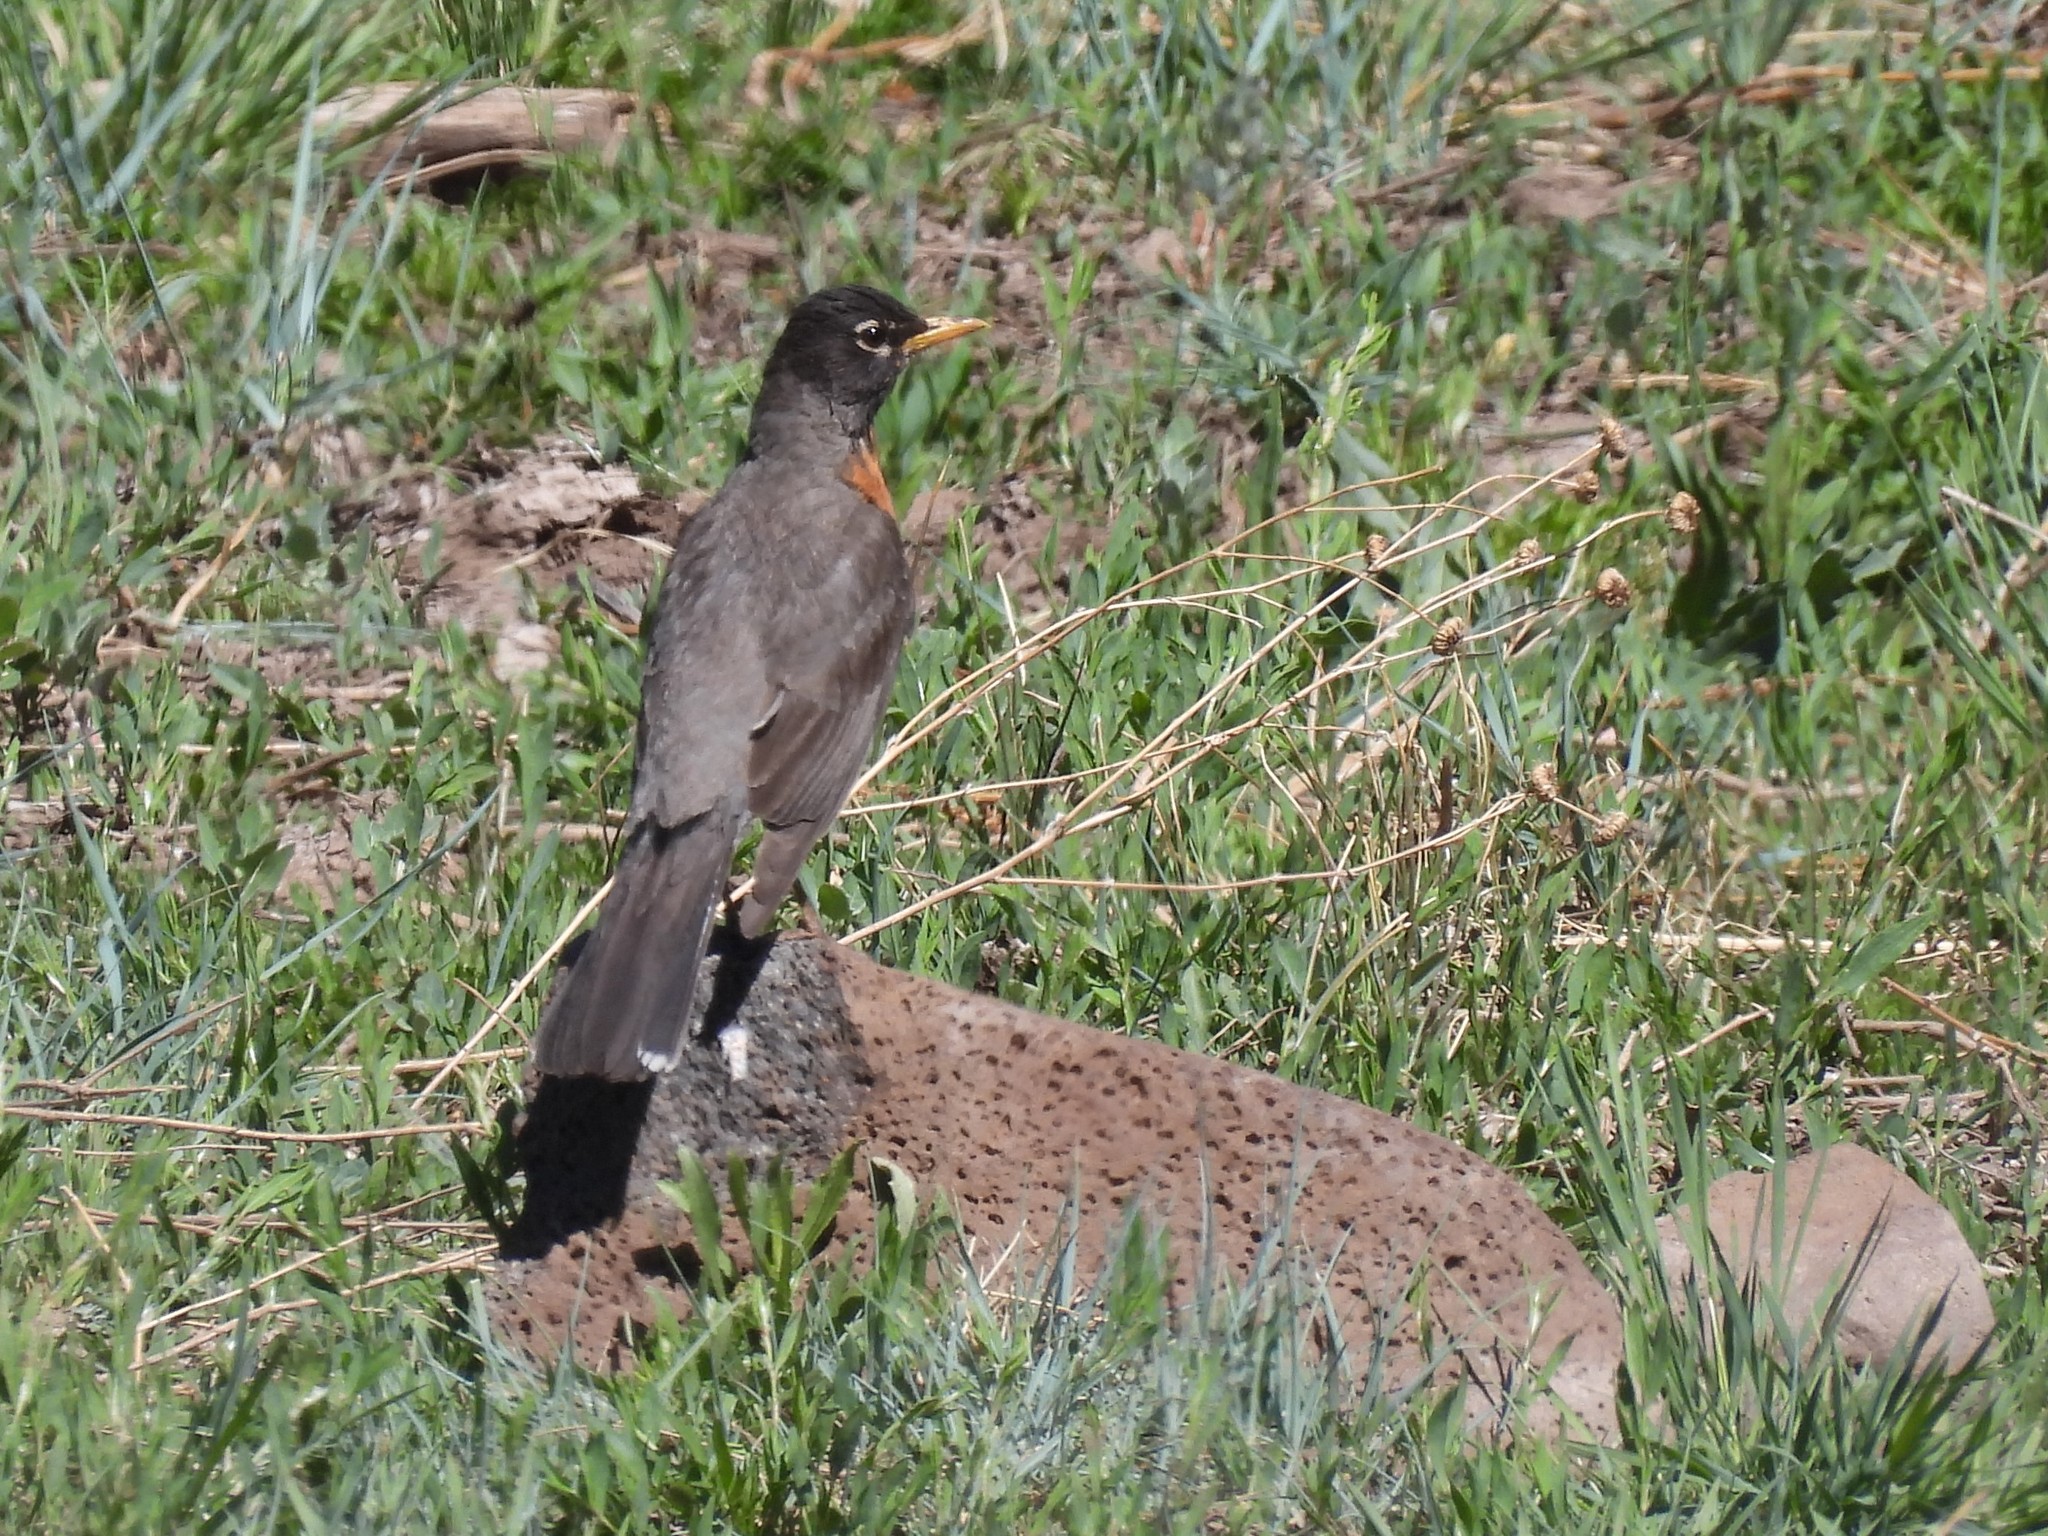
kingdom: Animalia
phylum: Chordata
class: Aves
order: Passeriformes
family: Turdidae
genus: Turdus
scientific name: Turdus migratorius
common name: American robin
